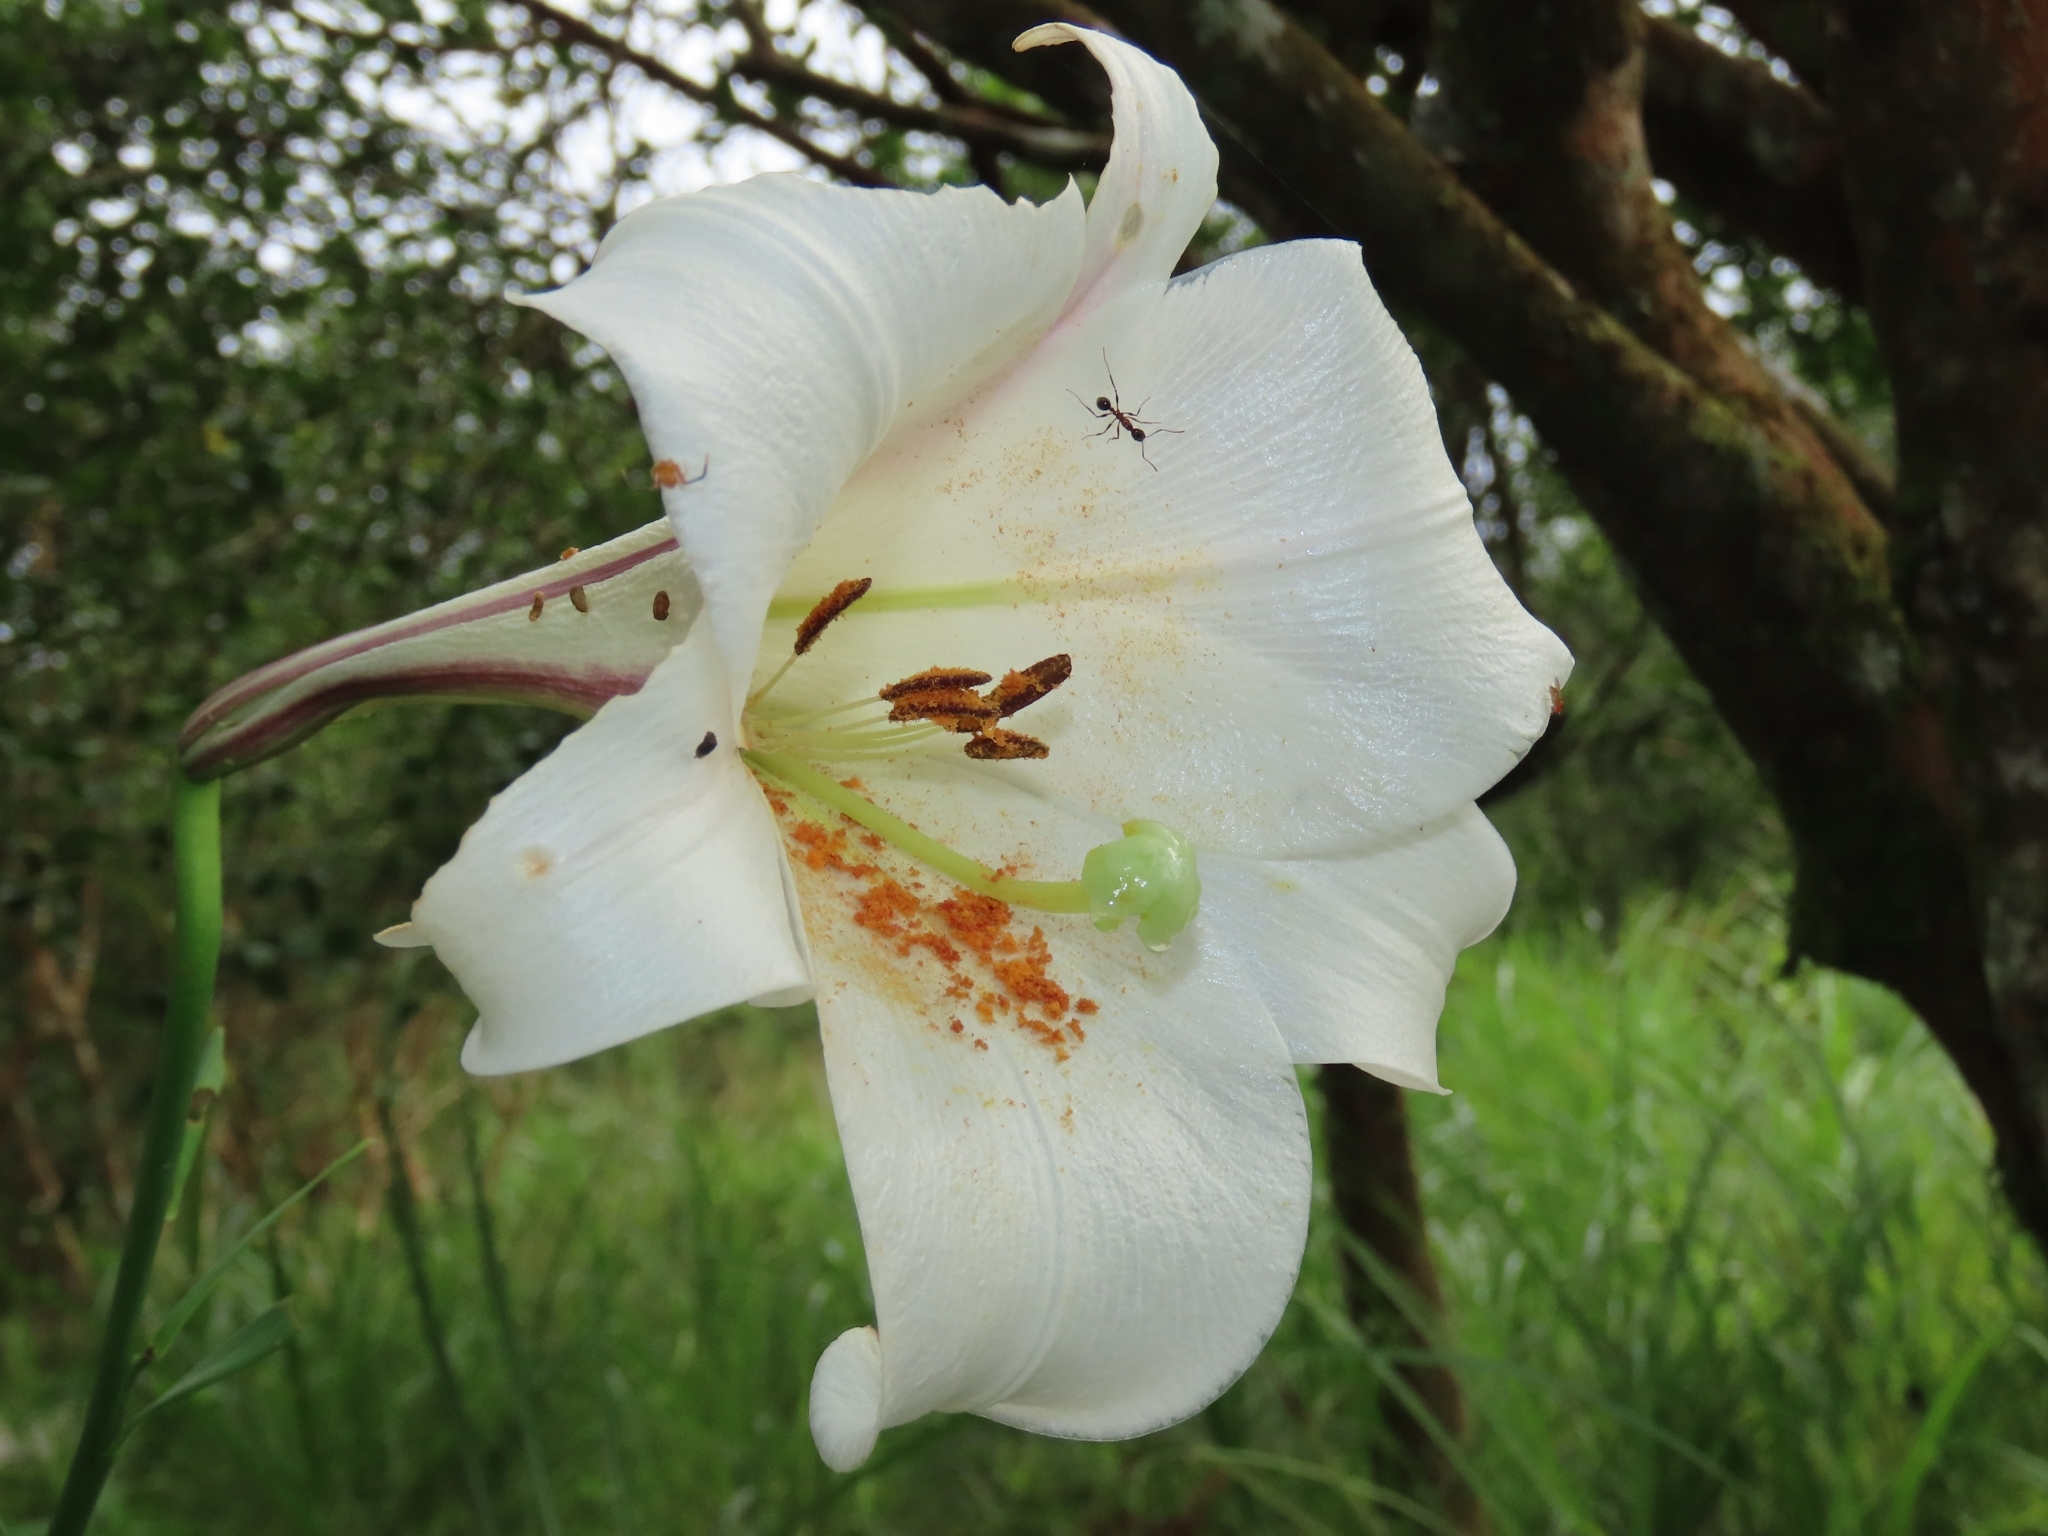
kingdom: Plantae
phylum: Tracheophyta
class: Liliopsida
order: Liliales
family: Liliaceae
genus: Lilium
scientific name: Lilium formosanum
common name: Formosa lily
